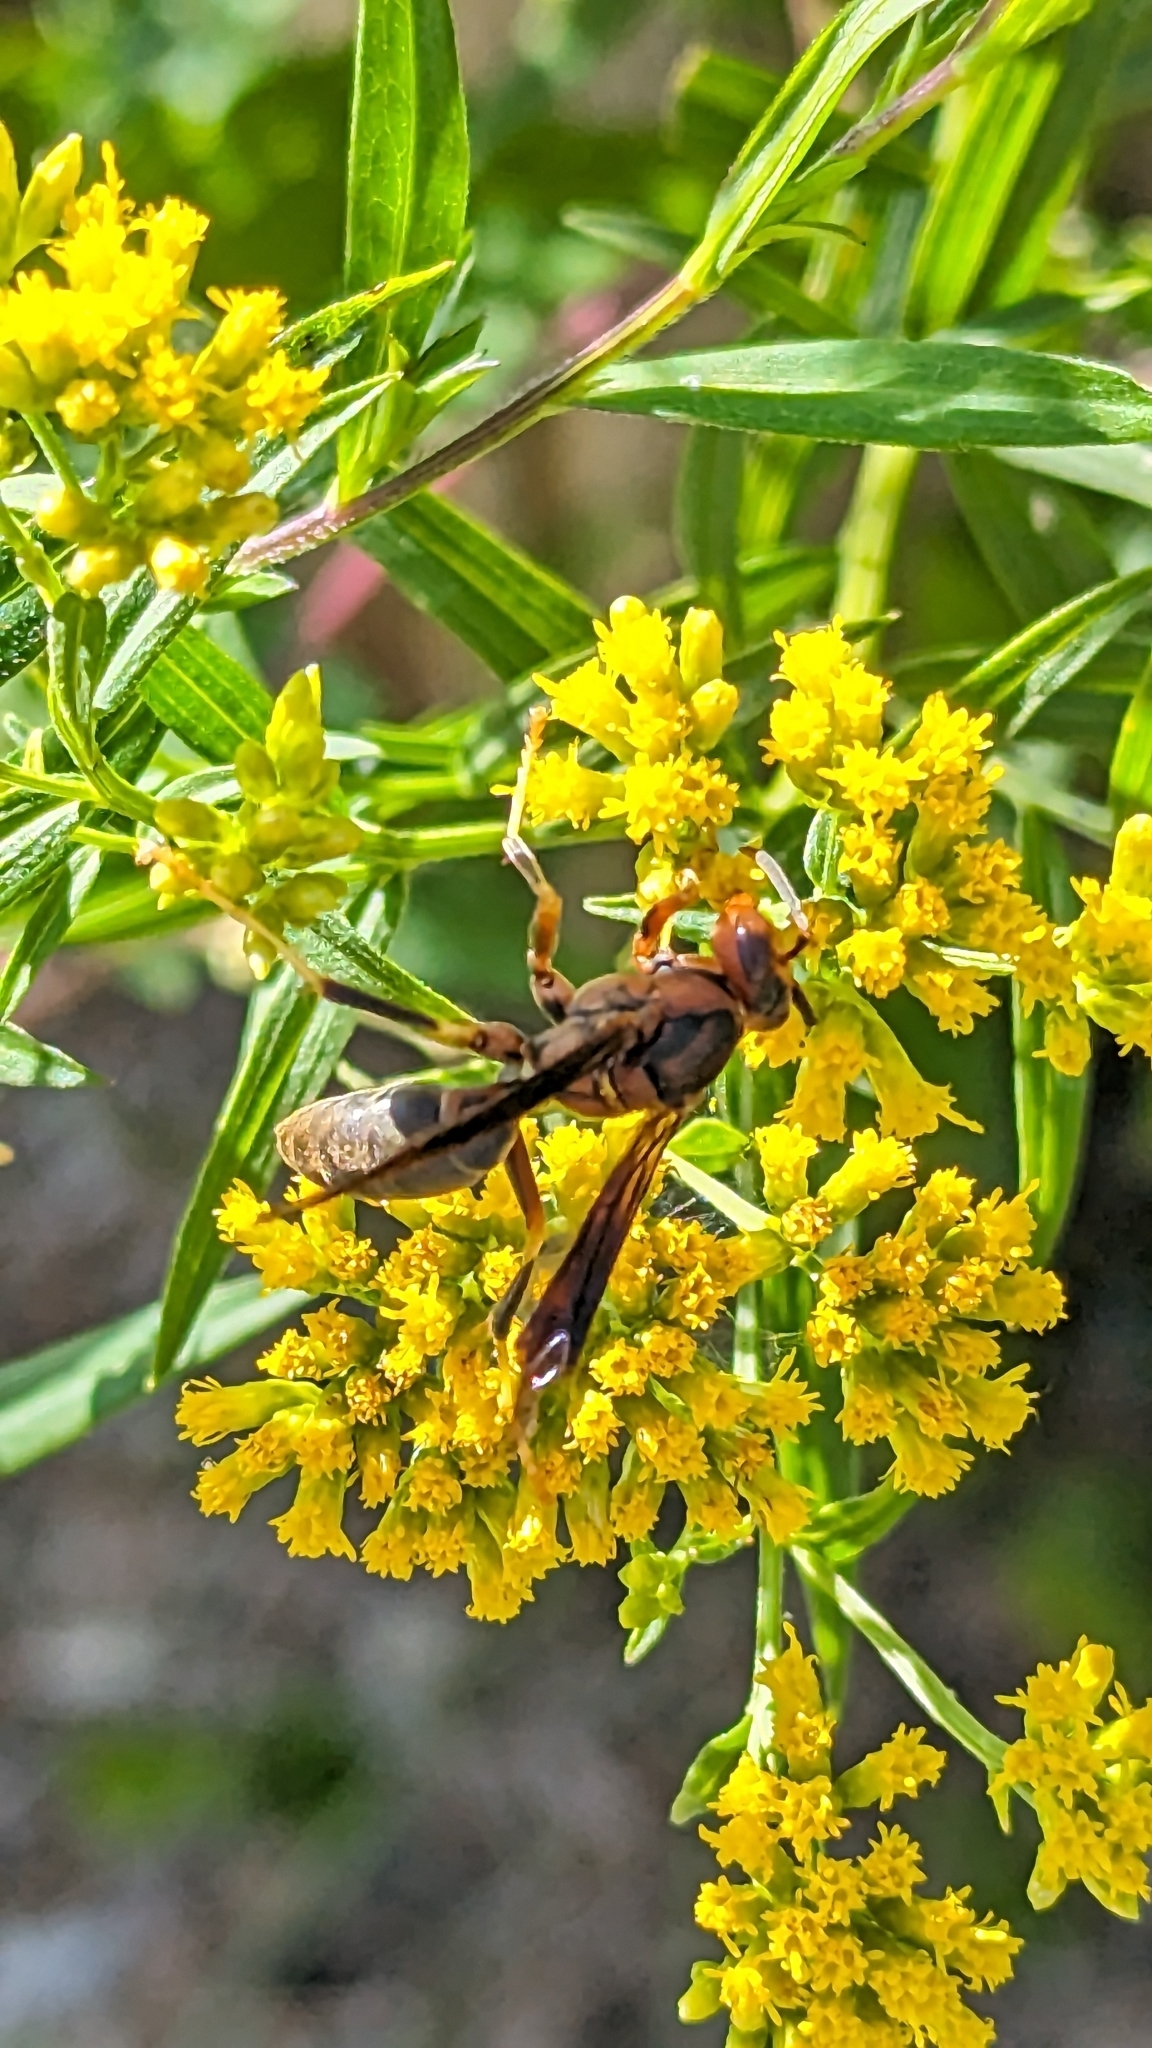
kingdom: Animalia
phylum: Arthropoda
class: Insecta
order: Hymenoptera
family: Eumenidae
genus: Polistes
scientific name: Polistes metricus
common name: Metric paper wasp
